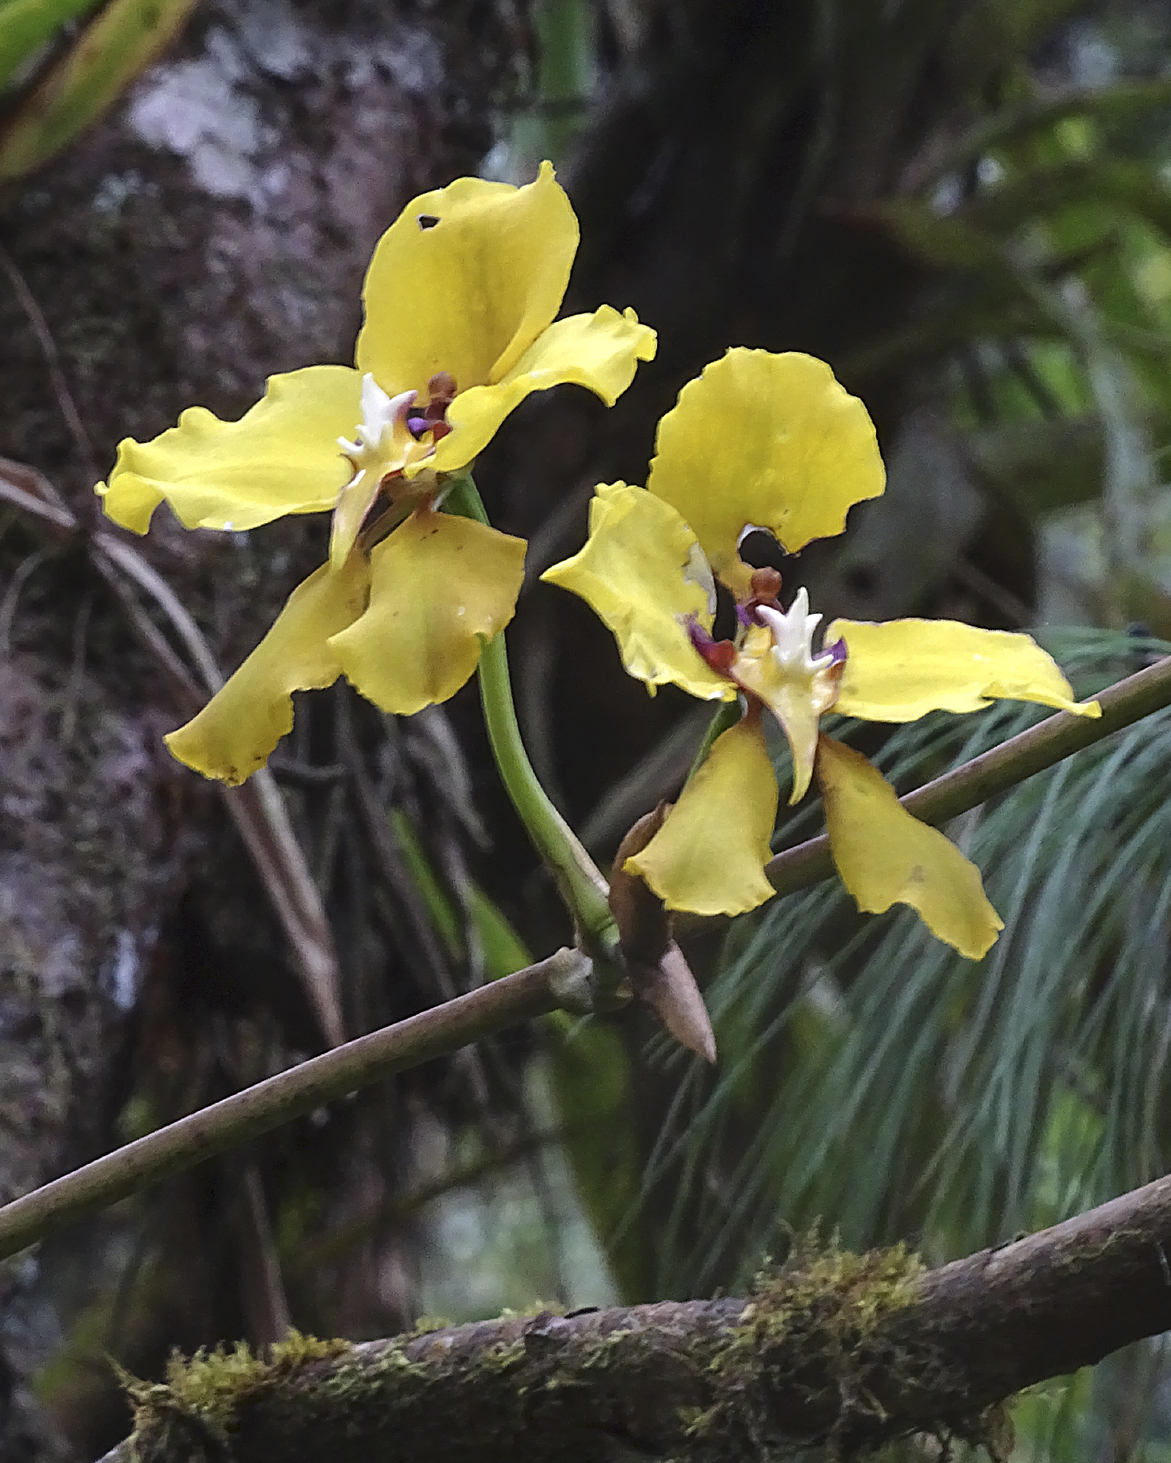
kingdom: Plantae
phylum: Tracheophyta
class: Liliopsida
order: Asparagales
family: Orchidaceae
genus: Cyrtochilum
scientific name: Cyrtochilum macranthum
